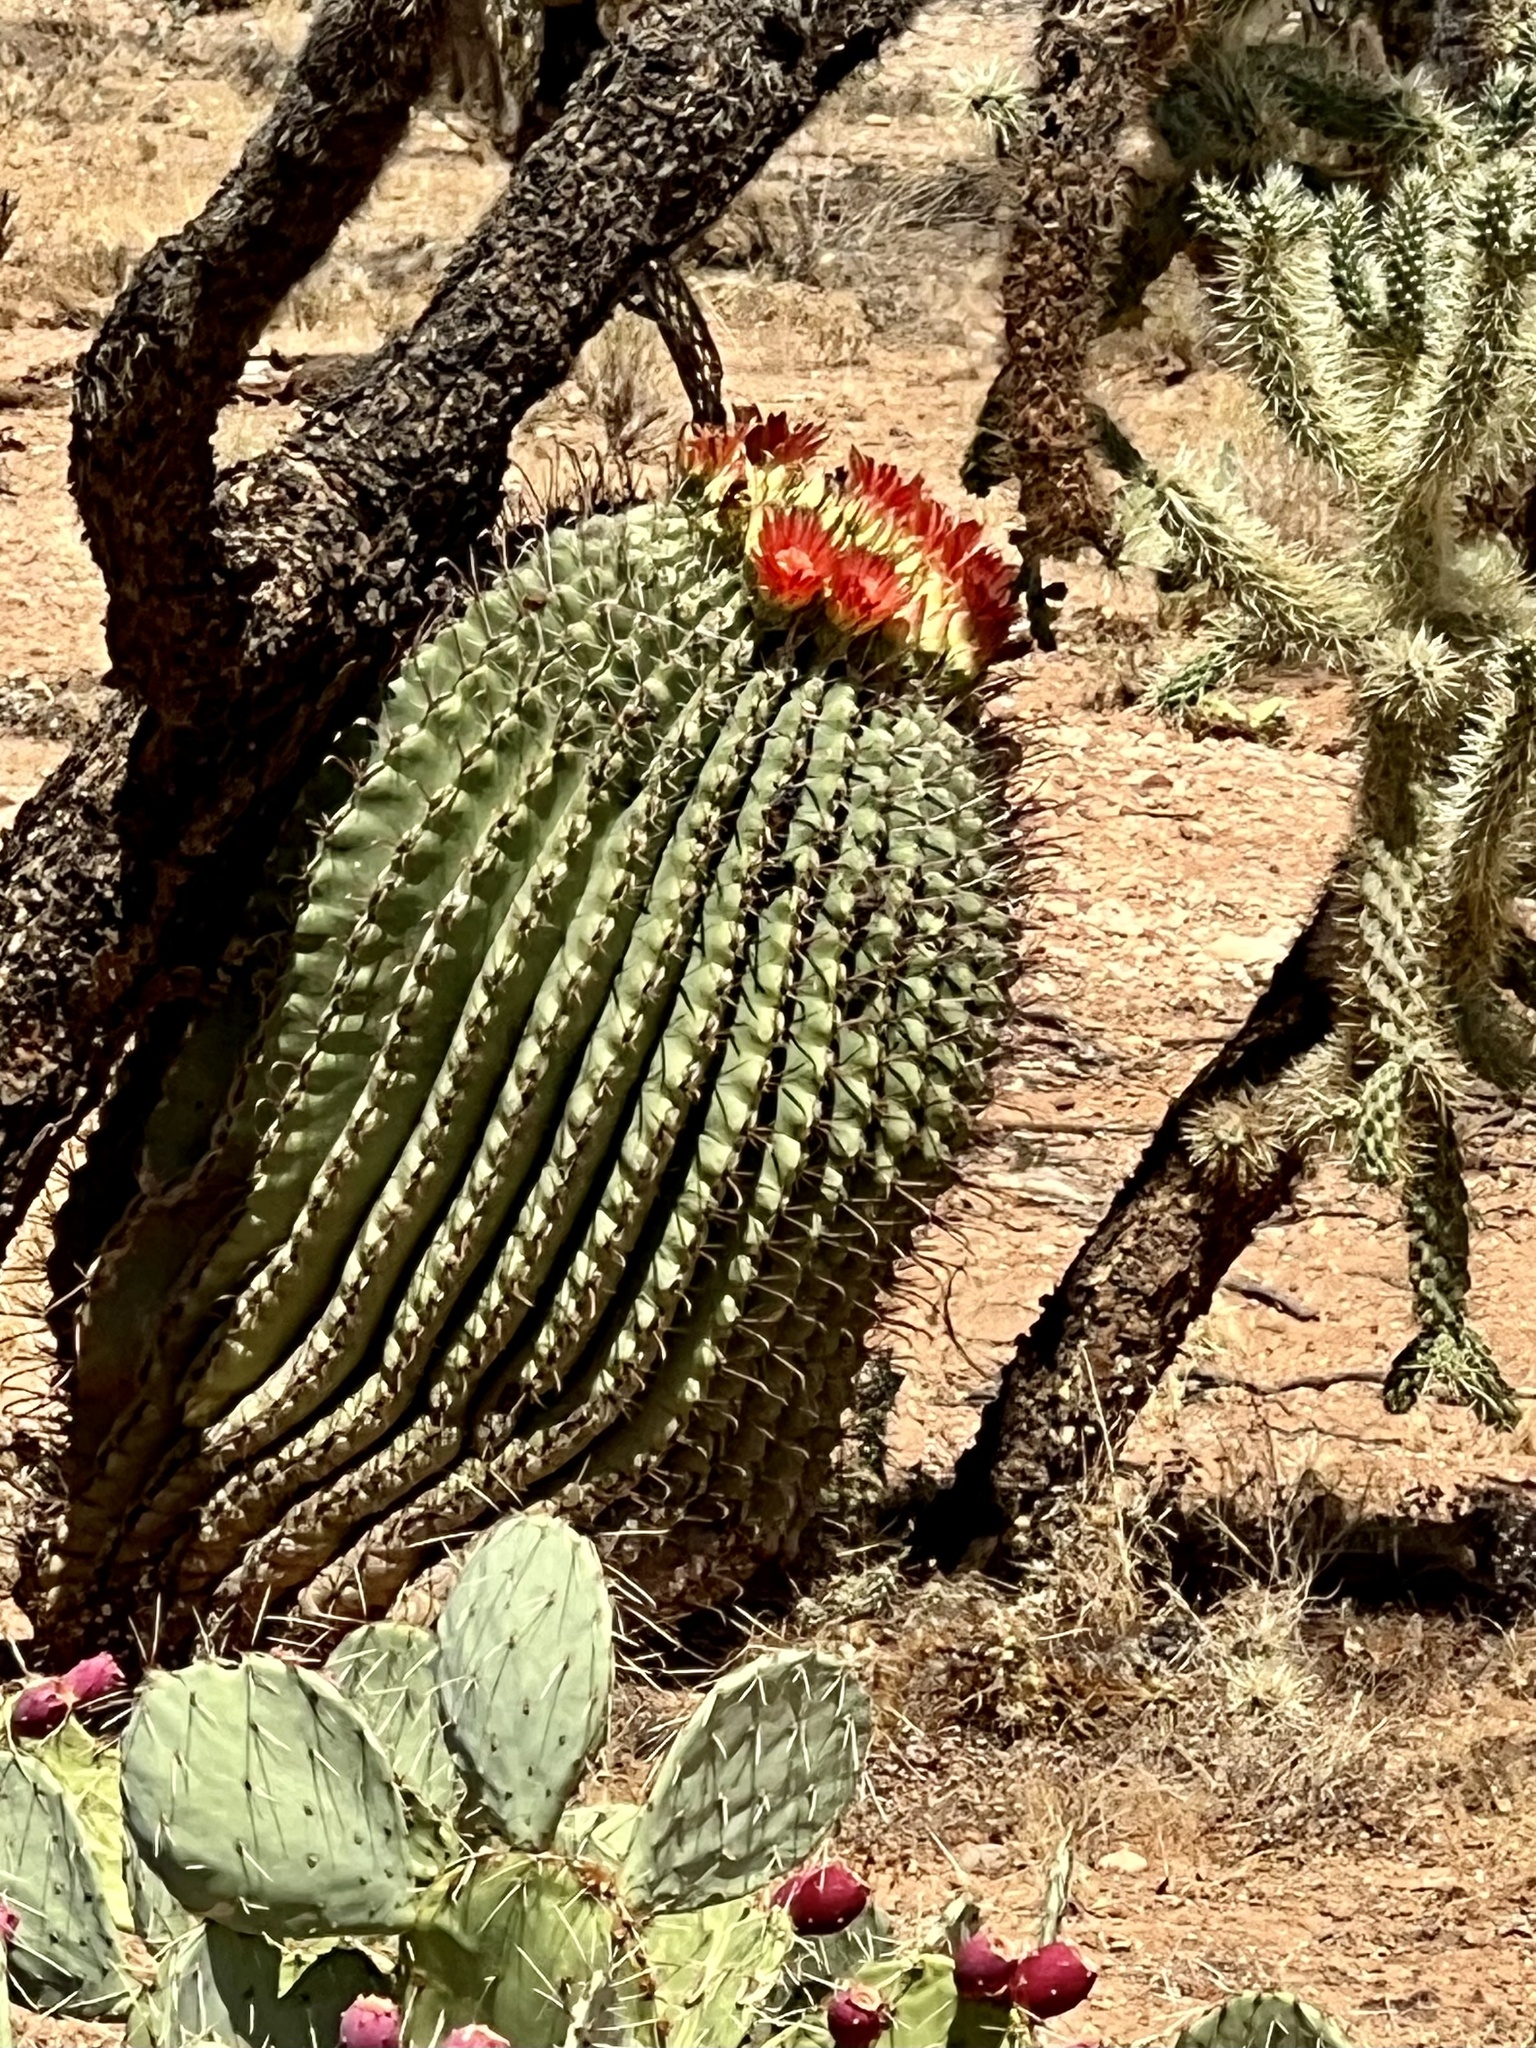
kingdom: Plantae
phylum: Tracheophyta
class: Magnoliopsida
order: Caryophyllales
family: Cactaceae
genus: Ferocactus
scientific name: Ferocactus wislizeni
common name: Candy barrel cactus
